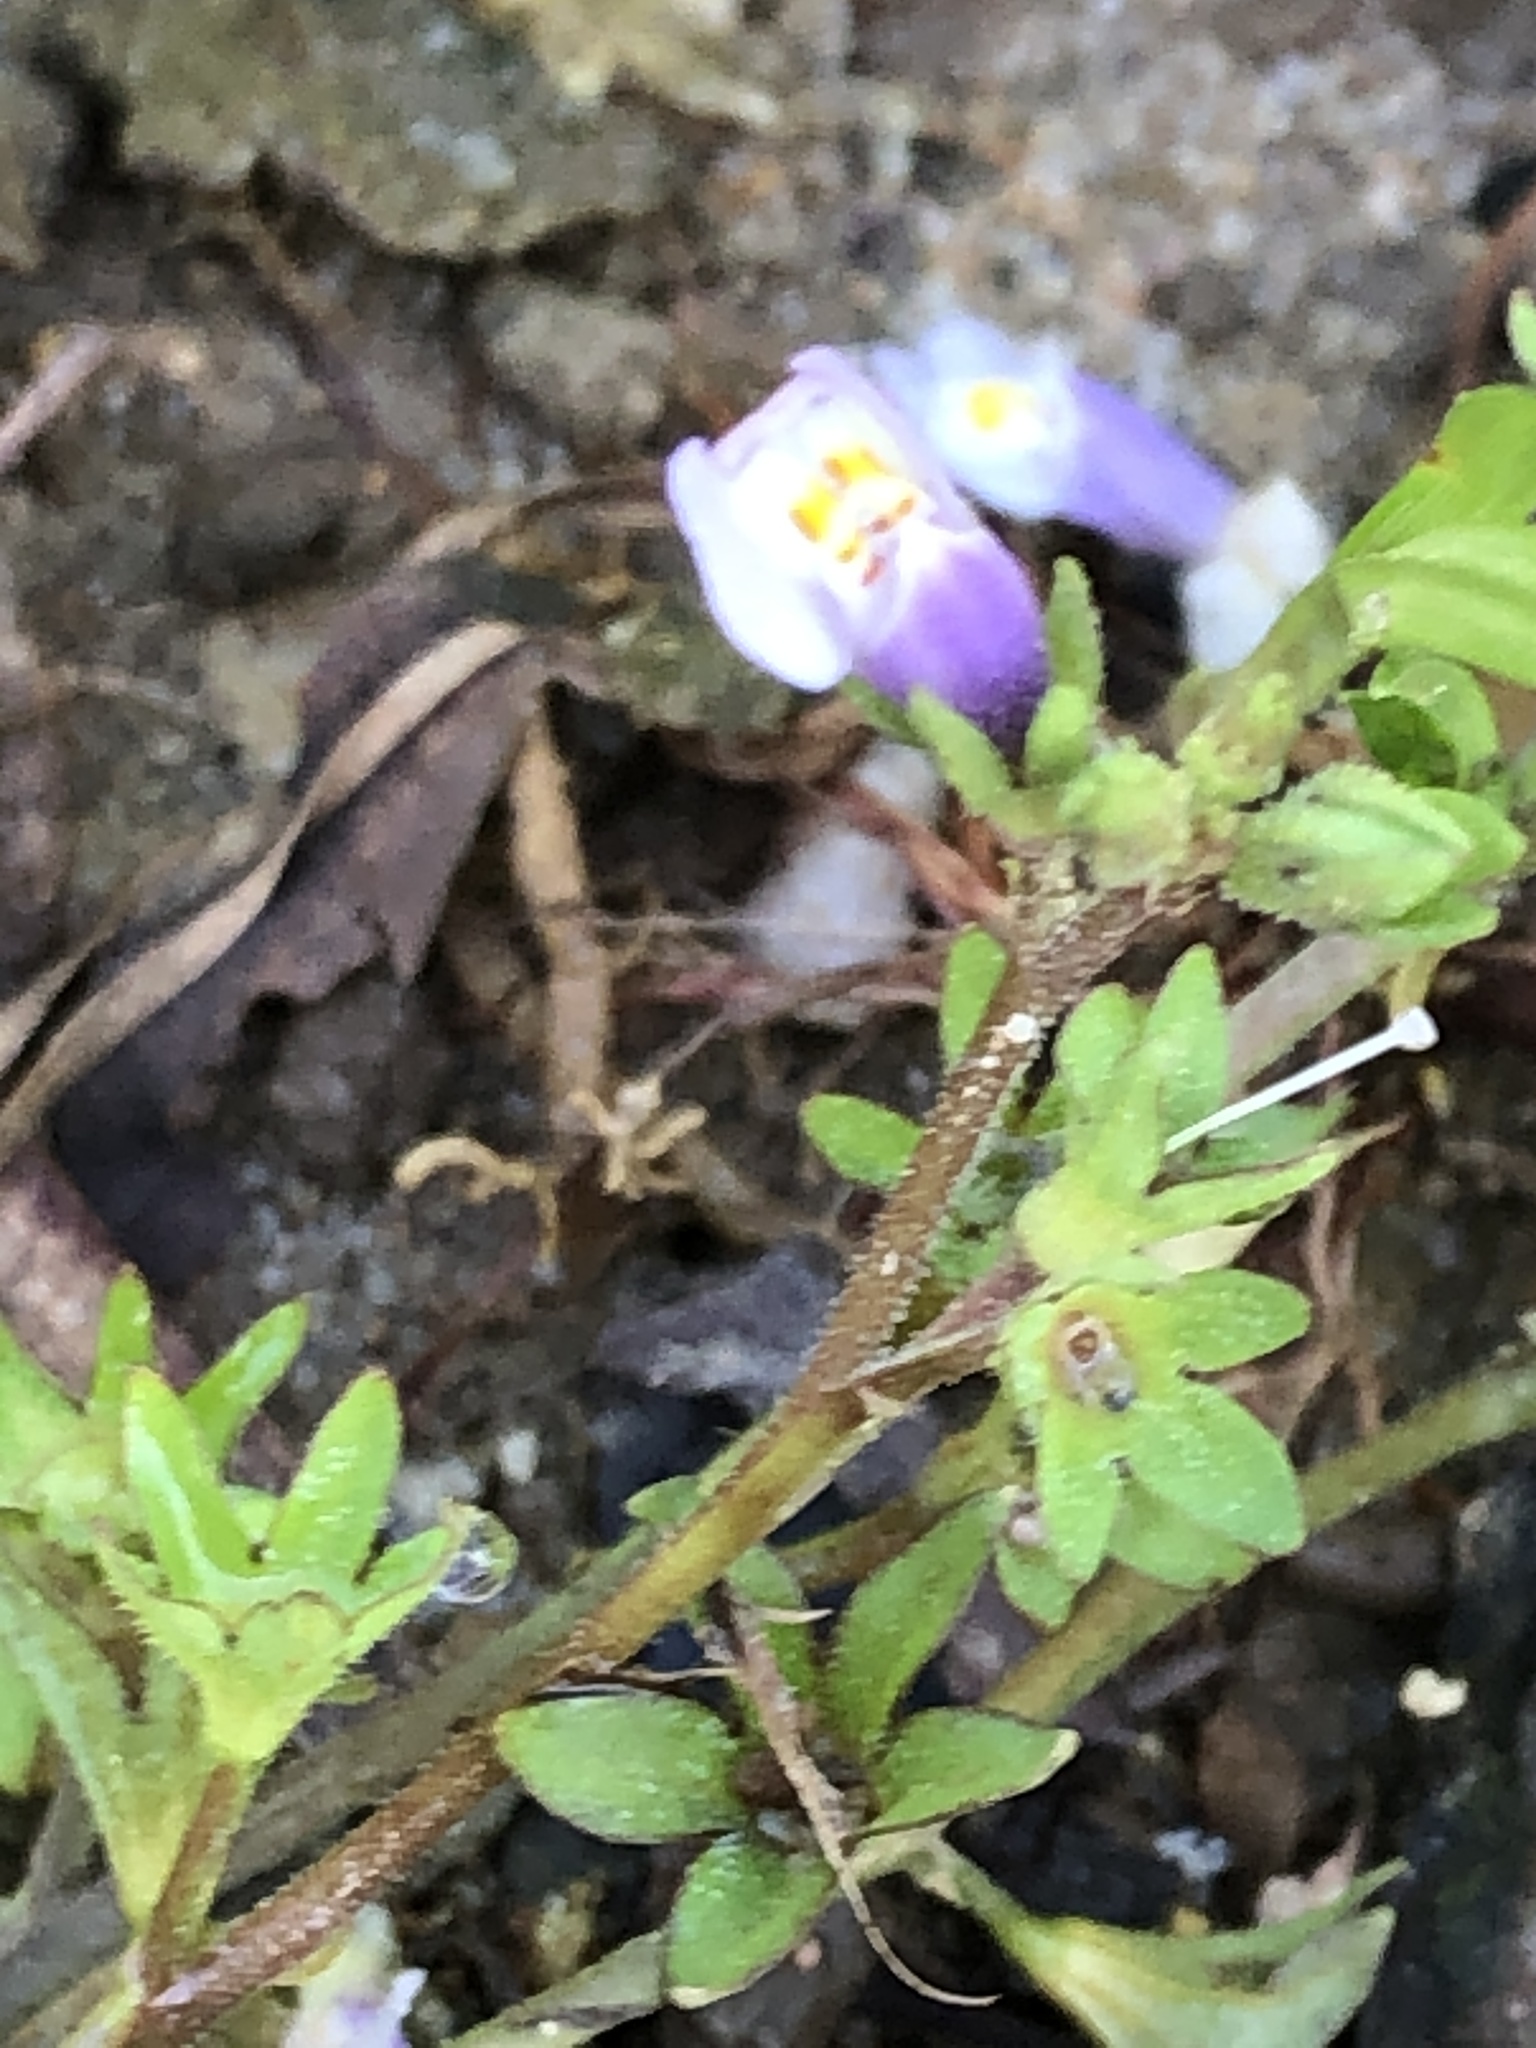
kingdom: Plantae
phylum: Tracheophyta
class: Magnoliopsida
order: Lamiales
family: Mazaceae
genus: Mazus
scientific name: Mazus pumilus
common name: Japanese mazus
